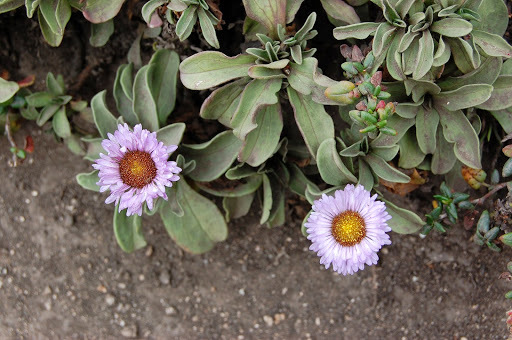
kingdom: Plantae
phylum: Tracheophyta
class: Magnoliopsida
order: Asterales
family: Asteraceae
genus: Erigeron
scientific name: Erigeron glaucus
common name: Seaside daisy
